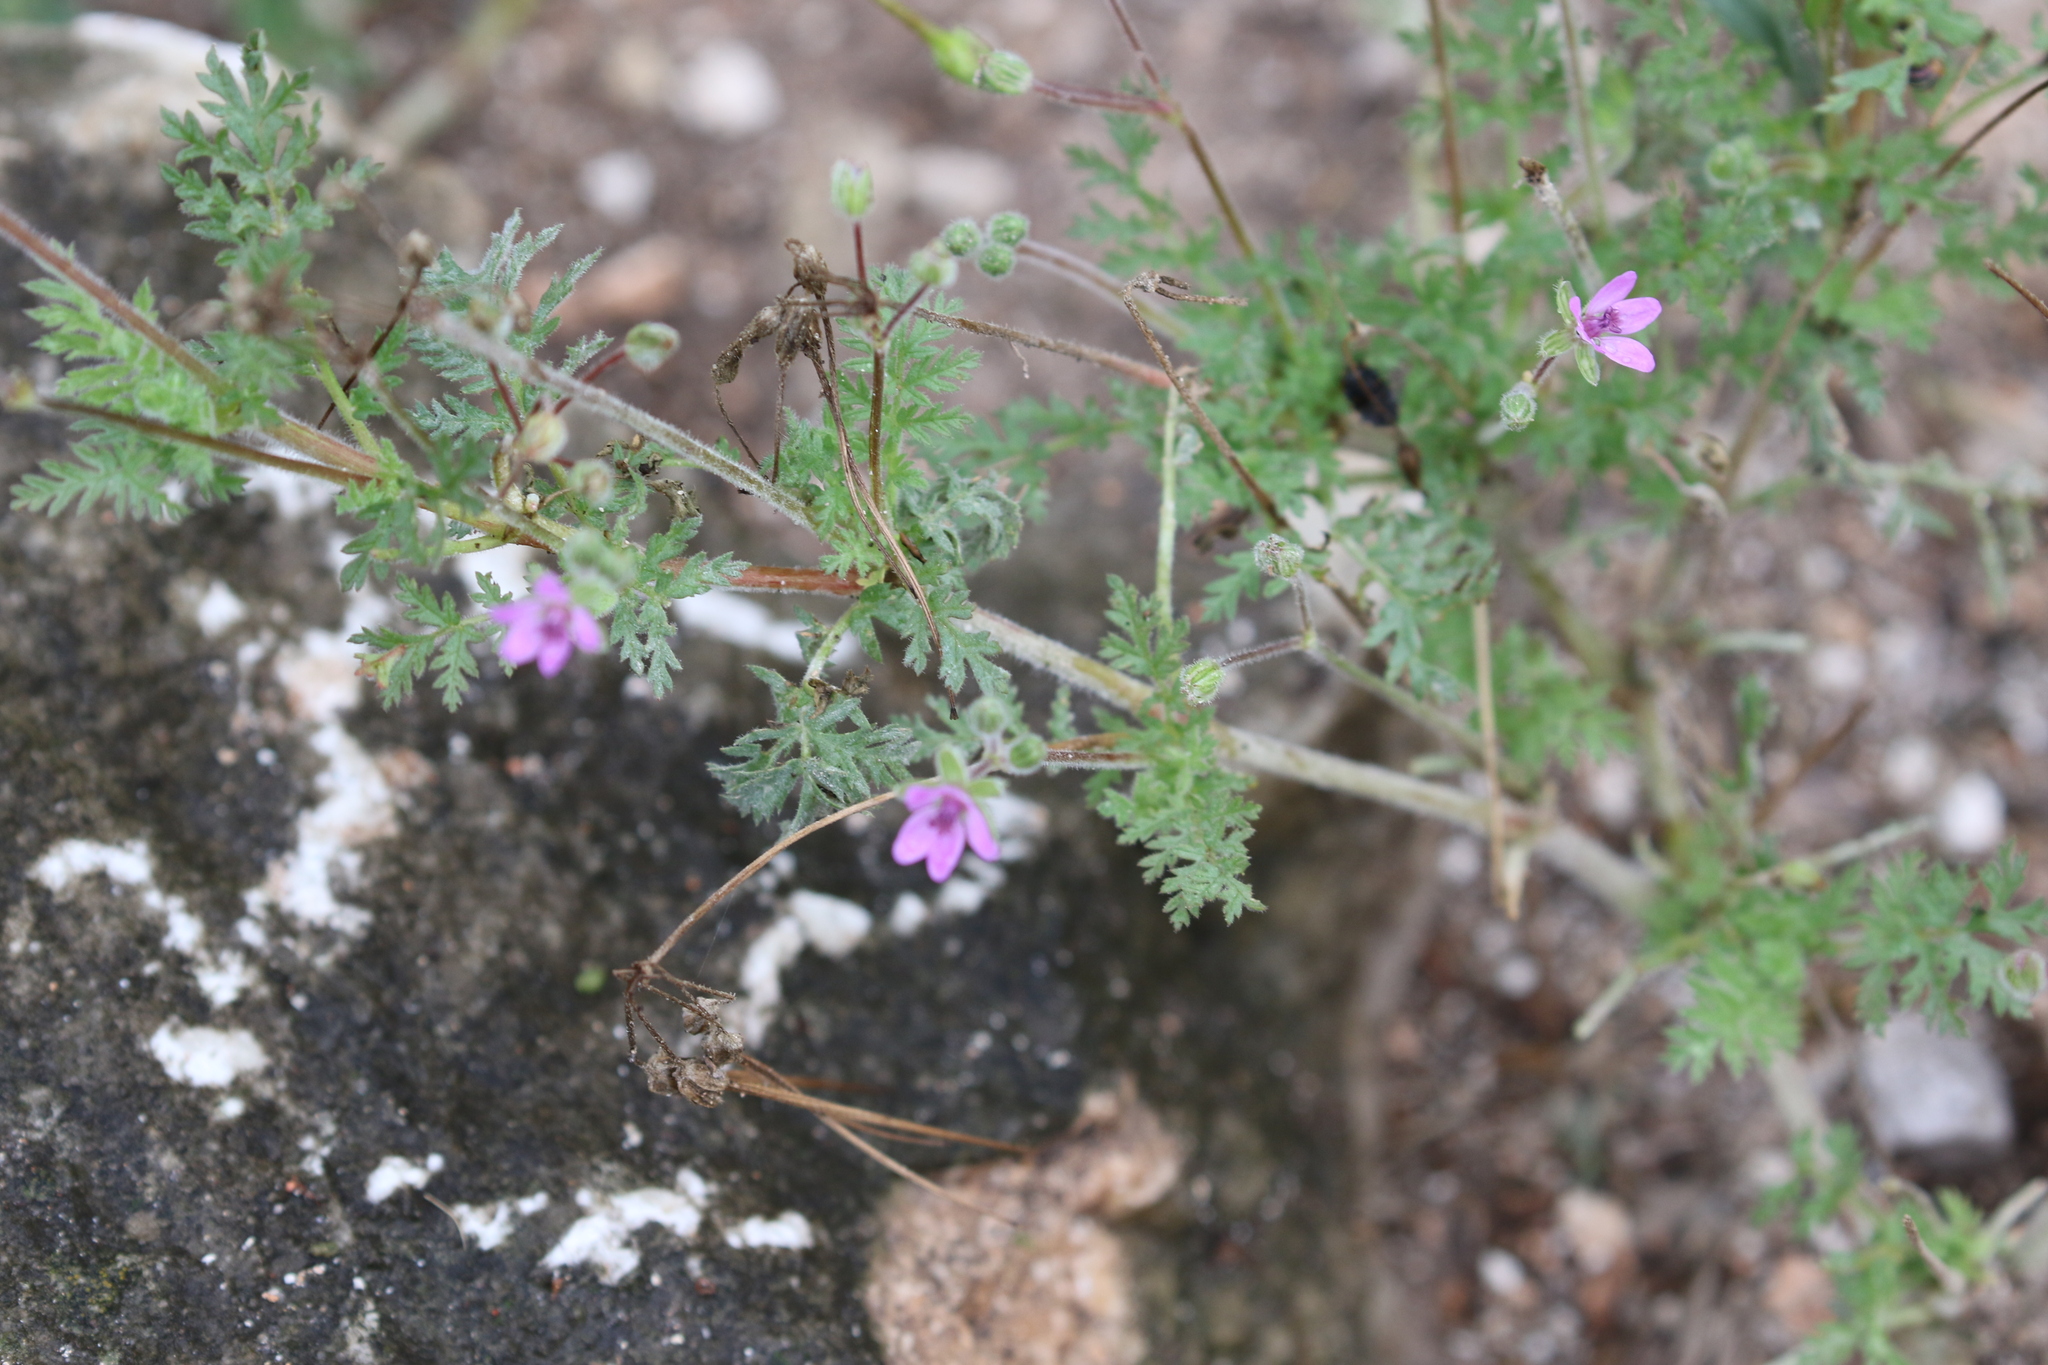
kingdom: Plantae
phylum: Tracheophyta
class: Magnoliopsida
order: Geraniales
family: Geraniaceae
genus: Erodium
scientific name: Erodium cicutarium
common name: Common stork's-bill
